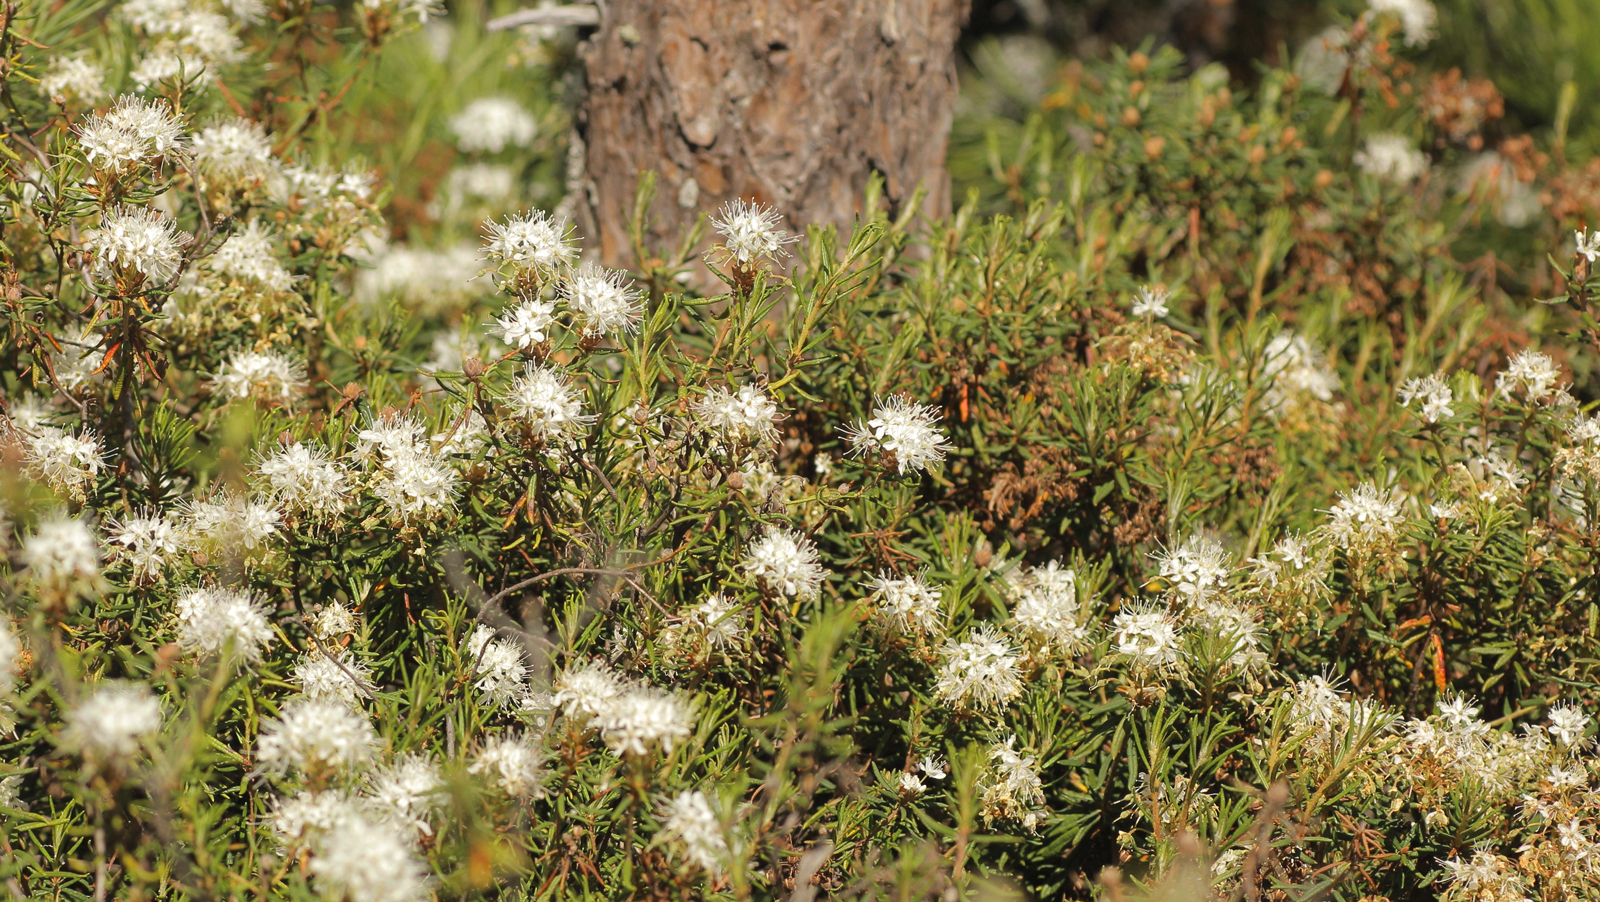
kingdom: Plantae
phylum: Tracheophyta
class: Magnoliopsida
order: Ericales
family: Ericaceae
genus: Rhododendron
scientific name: Rhododendron tomentosum
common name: Marsh labrador tea
